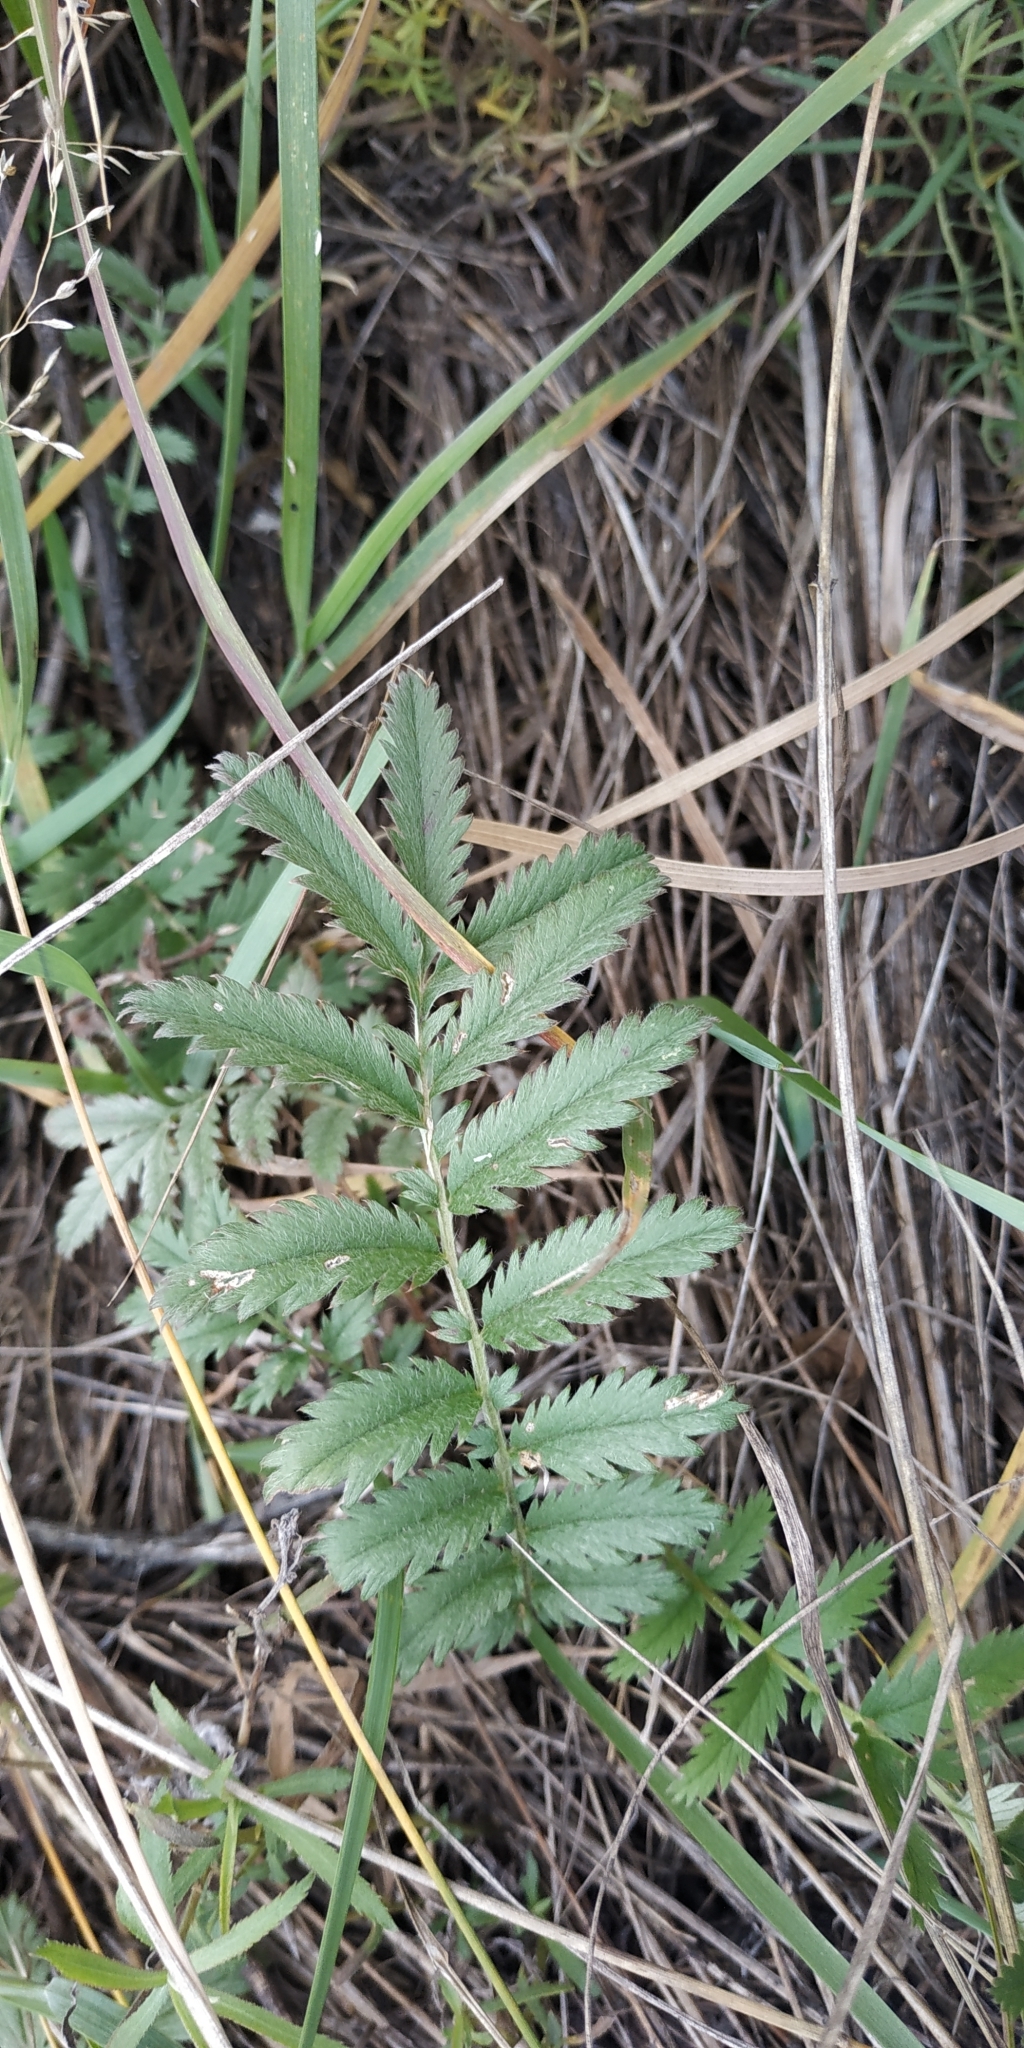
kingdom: Plantae
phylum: Tracheophyta
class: Magnoliopsida
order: Rosales
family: Rosaceae
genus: Argentina
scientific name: Argentina anserina
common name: Common silverweed
